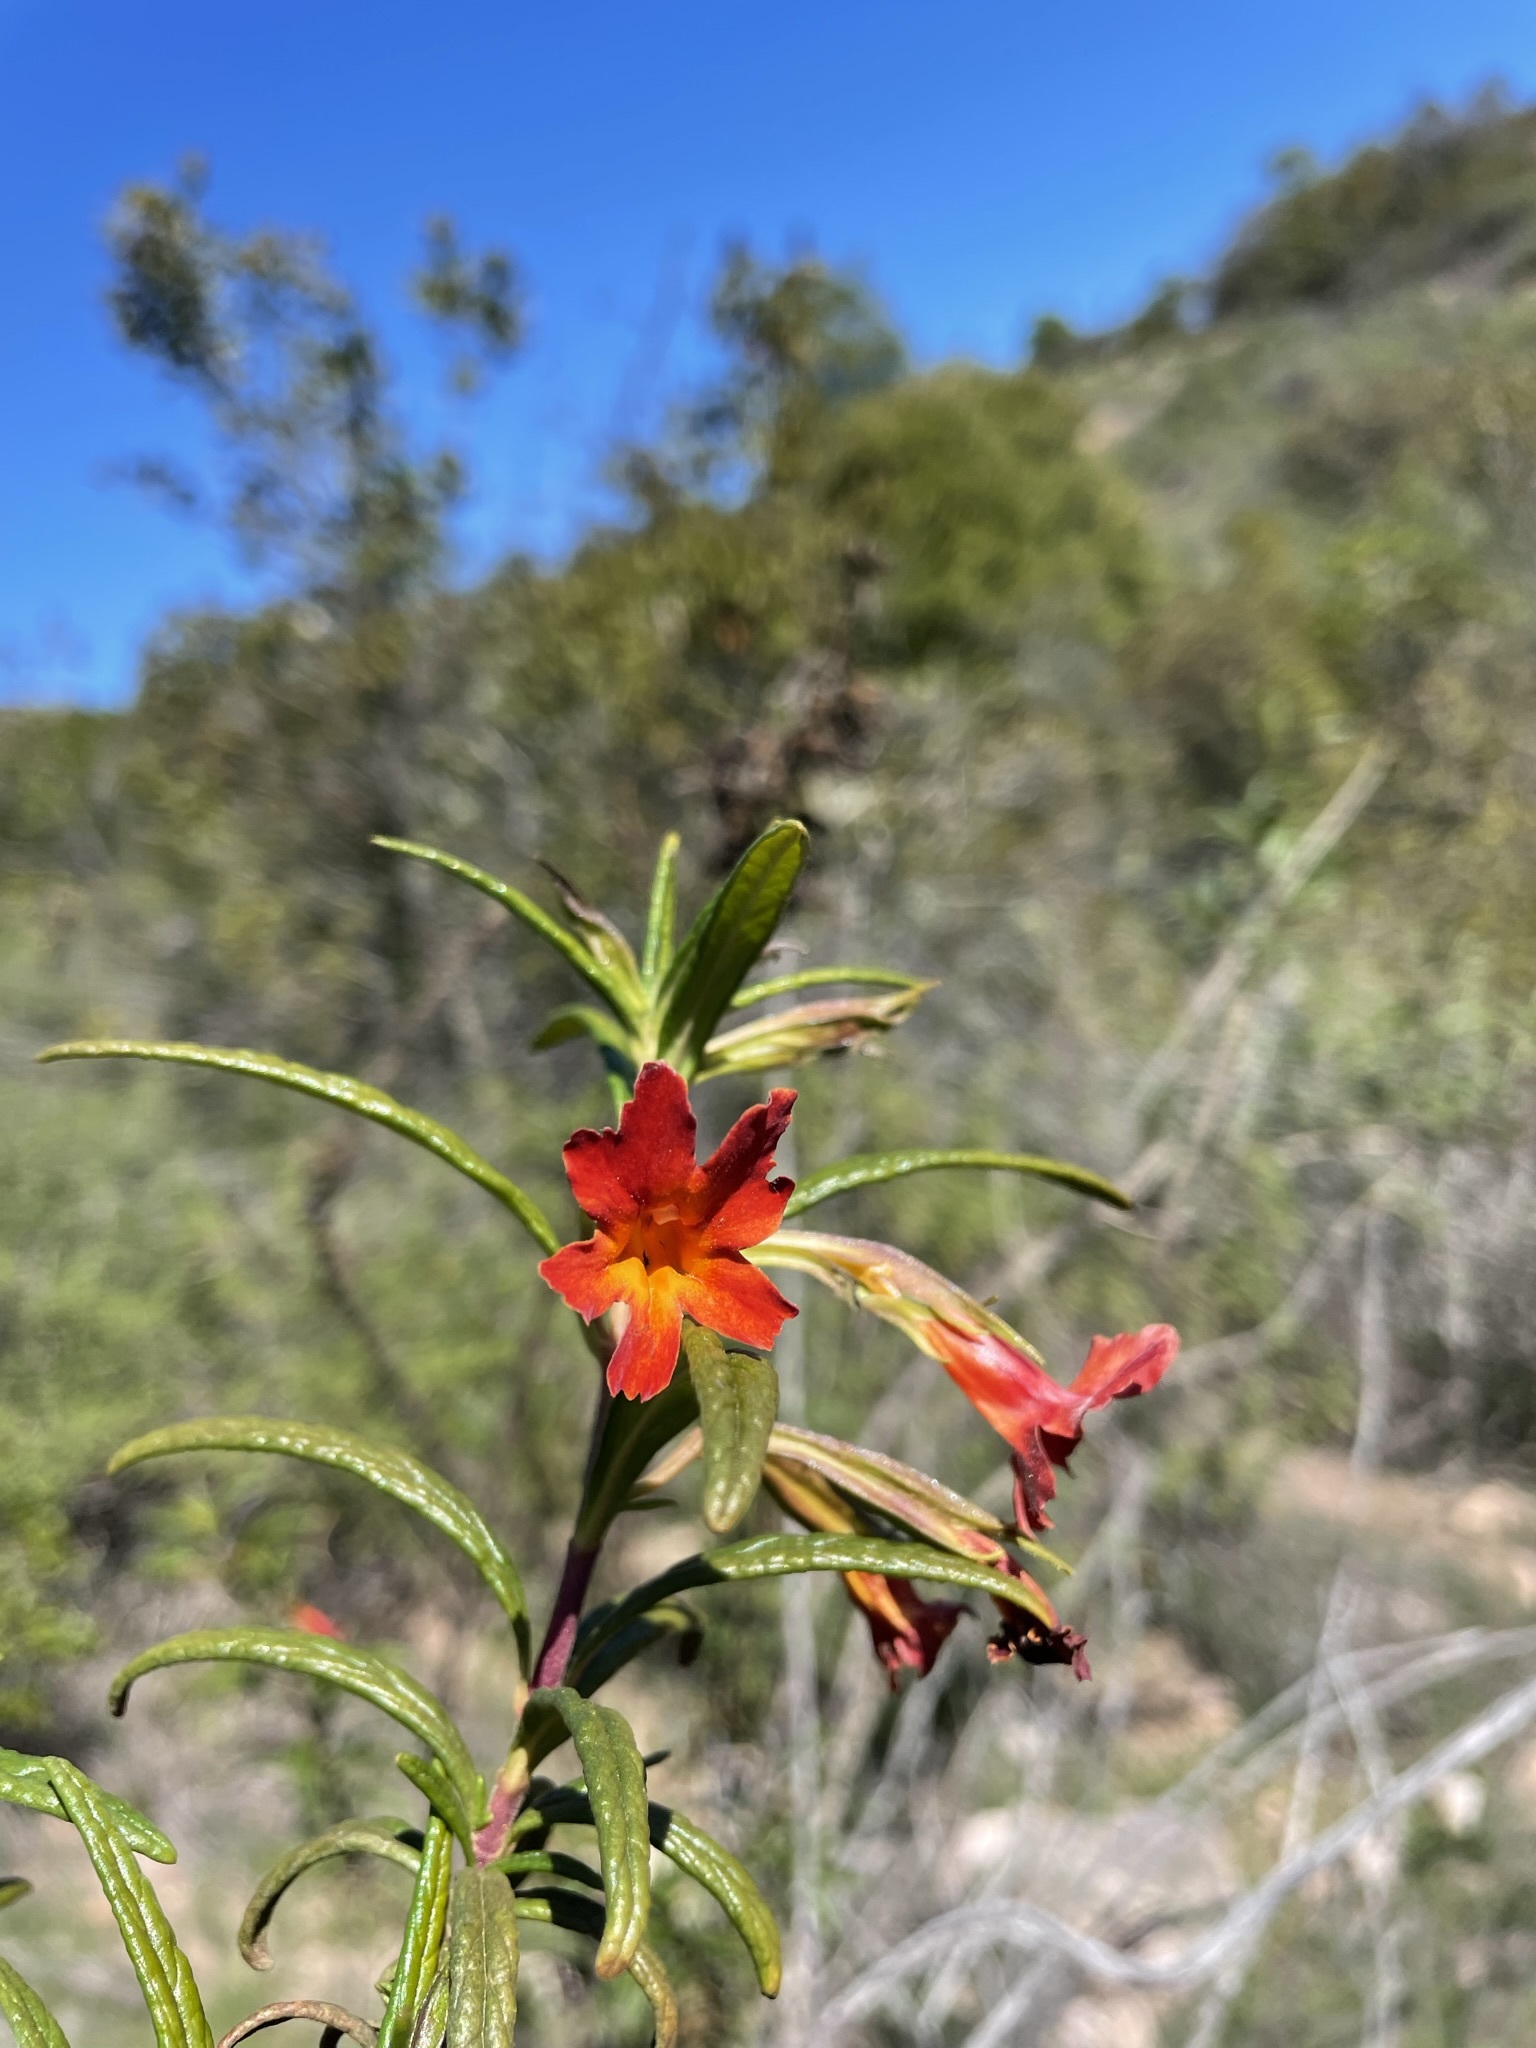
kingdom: Plantae
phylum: Tracheophyta
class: Magnoliopsida
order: Lamiales
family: Phrymaceae
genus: Diplacus
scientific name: Diplacus puniceus
